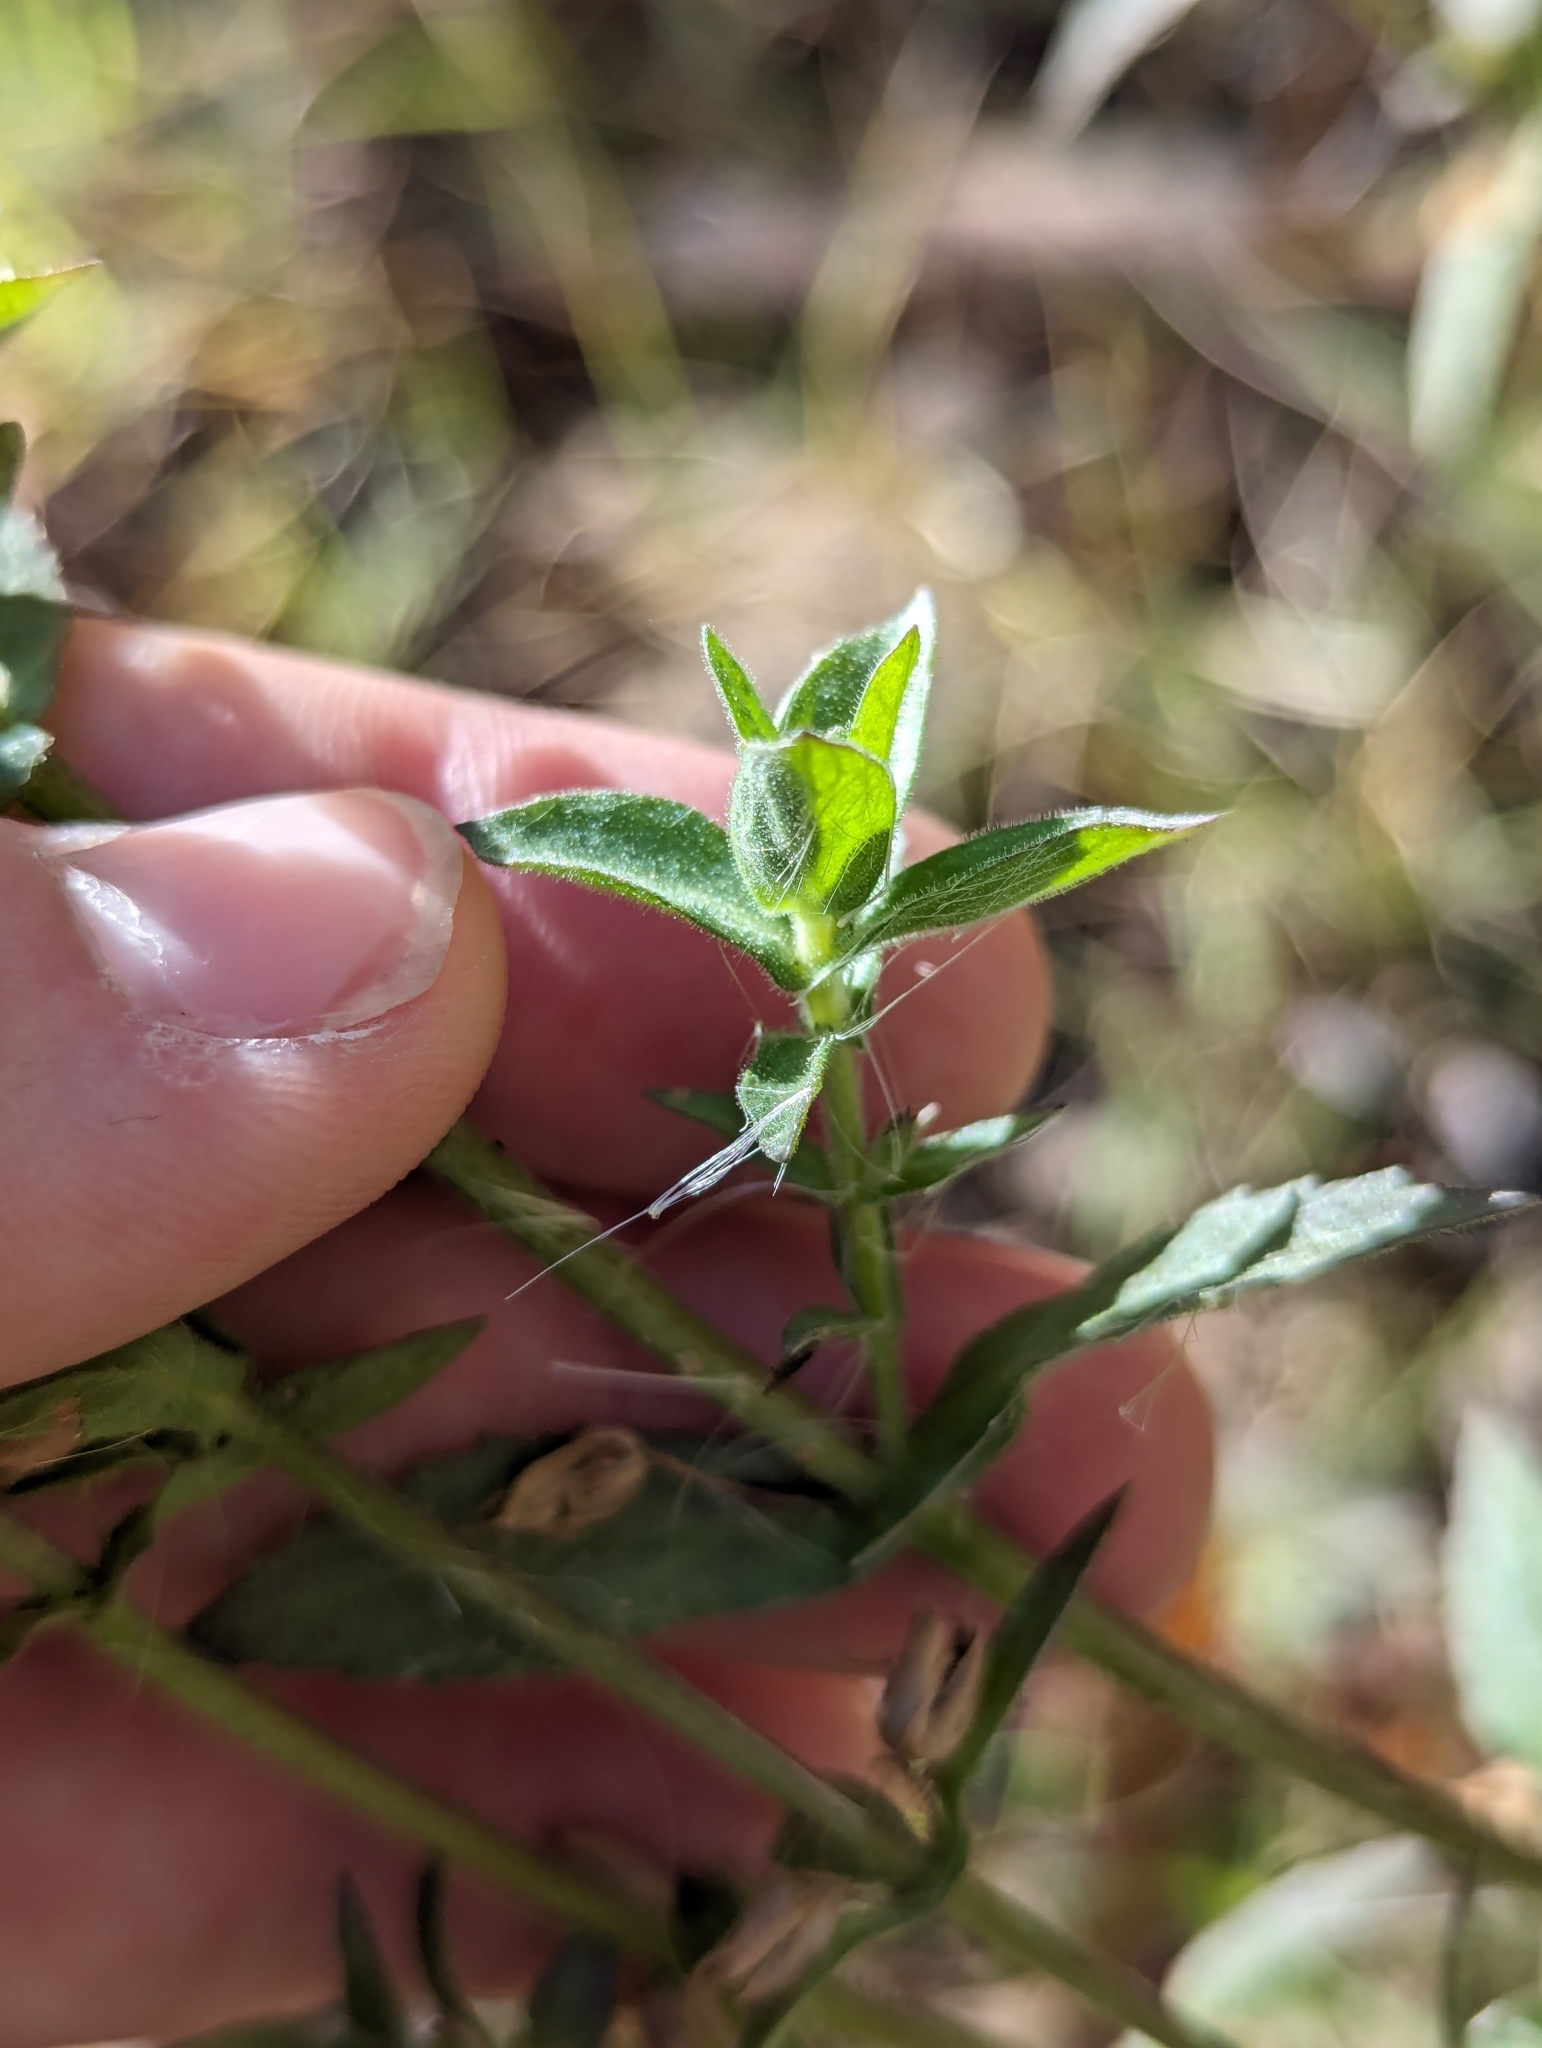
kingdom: Plantae
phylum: Tracheophyta
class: Magnoliopsida
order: Lamiales
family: Plantaginaceae
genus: Stemodia
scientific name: Stemodia durantifolia
